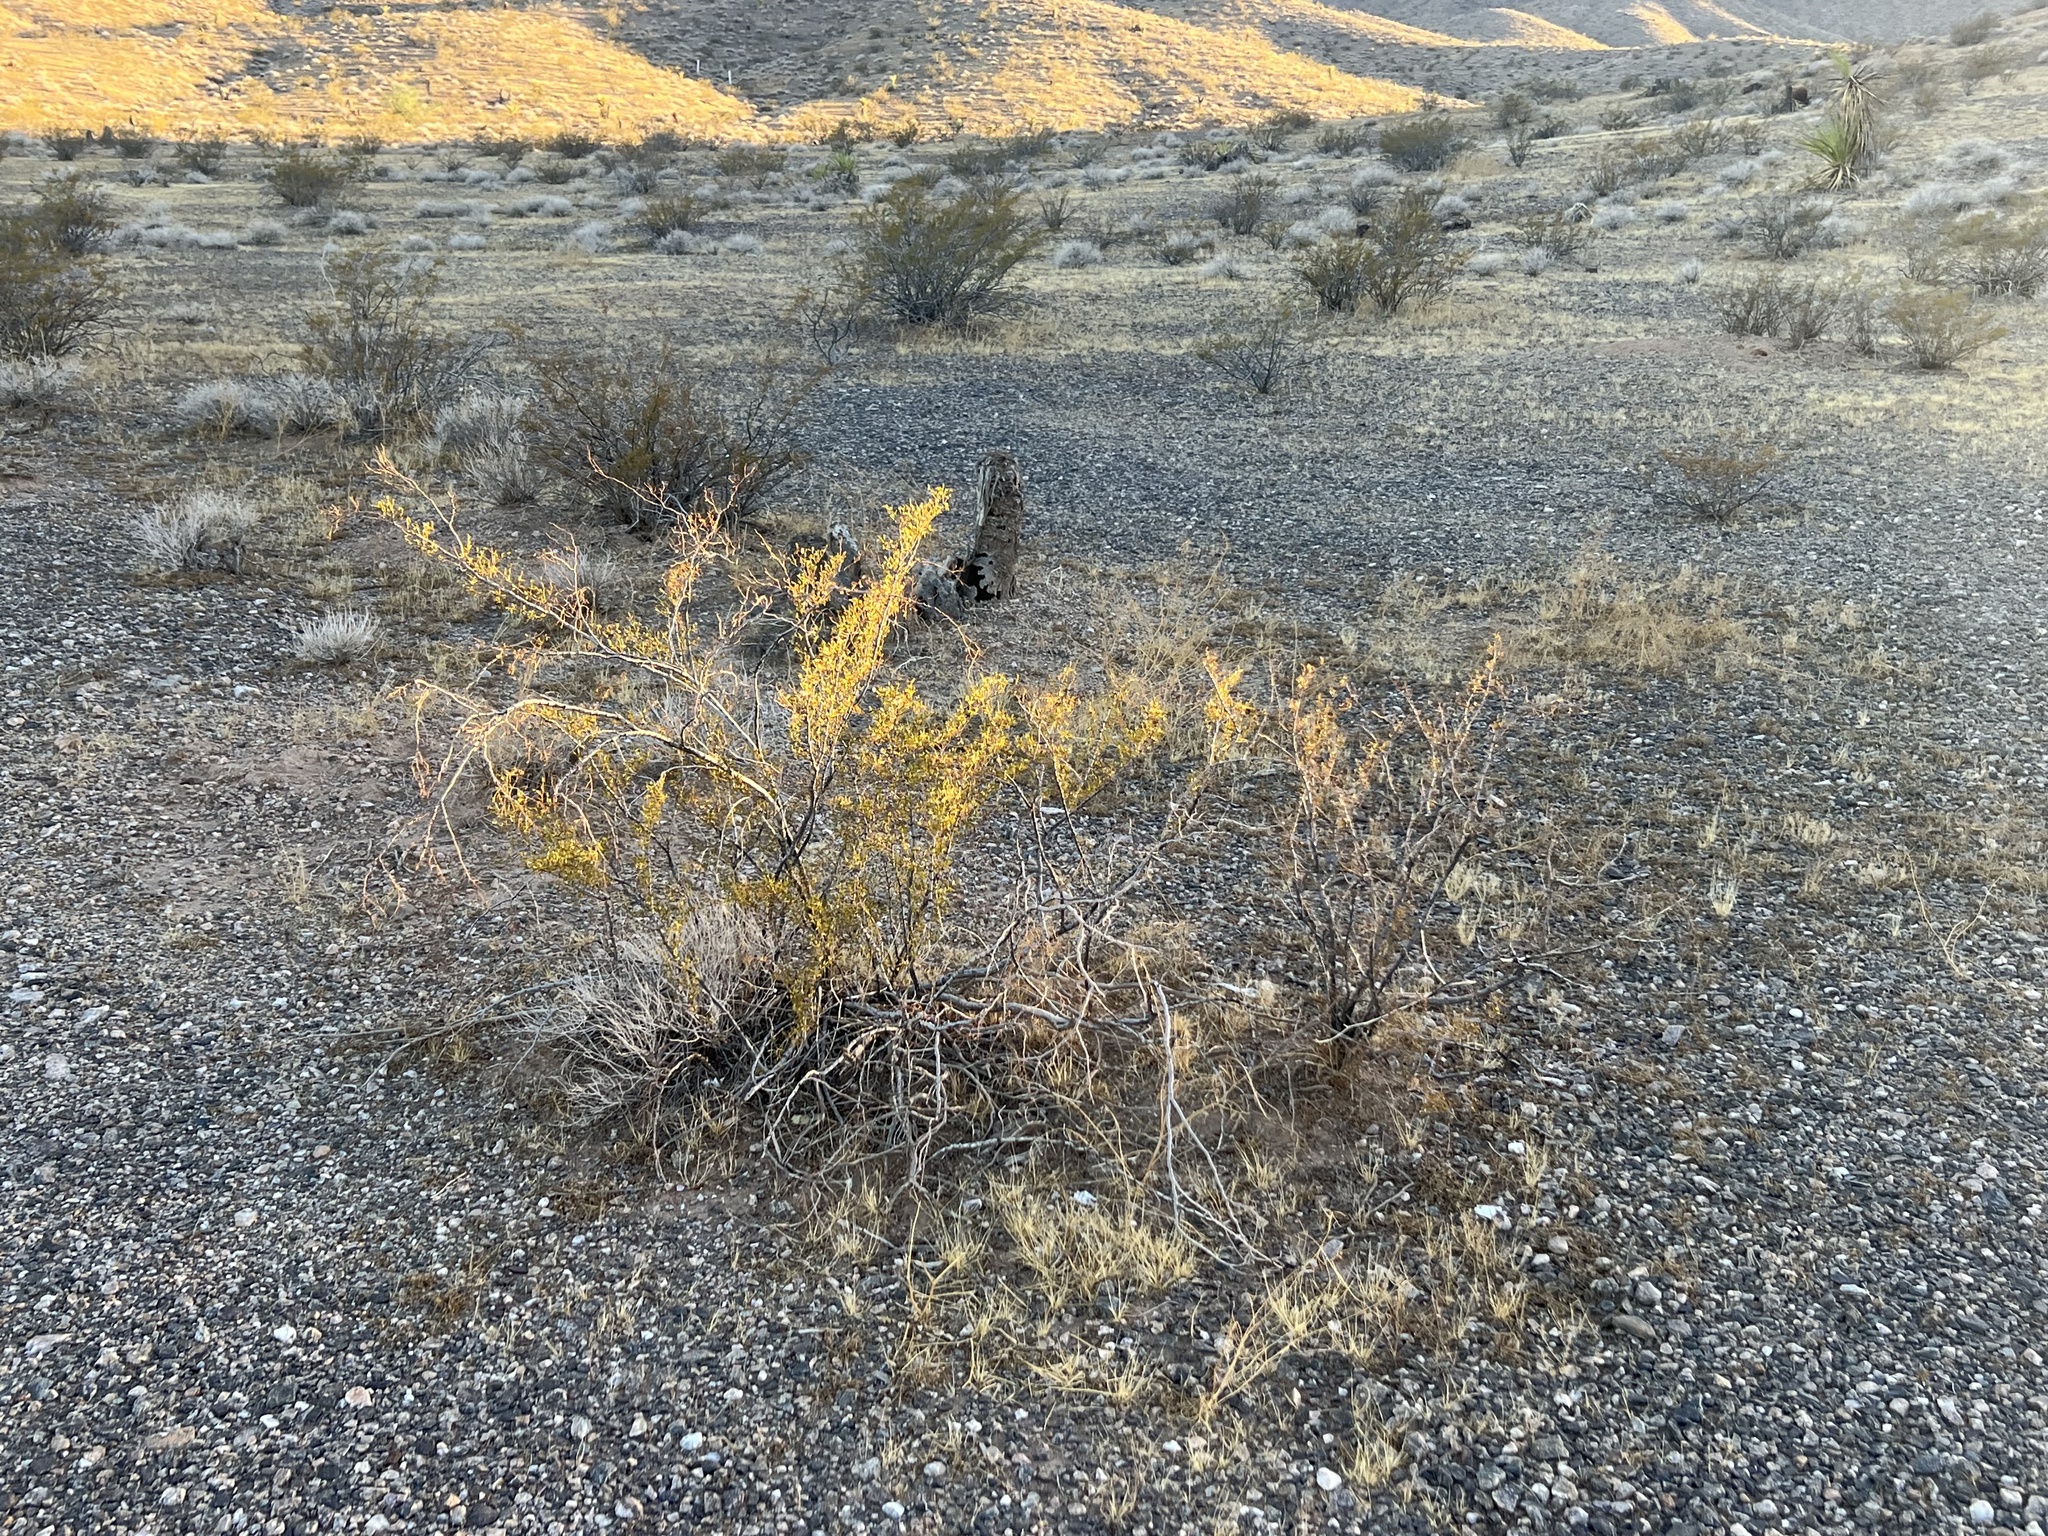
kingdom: Plantae
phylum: Tracheophyta
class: Magnoliopsida
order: Zygophyllales
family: Zygophyllaceae
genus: Larrea
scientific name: Larrea tridentata
